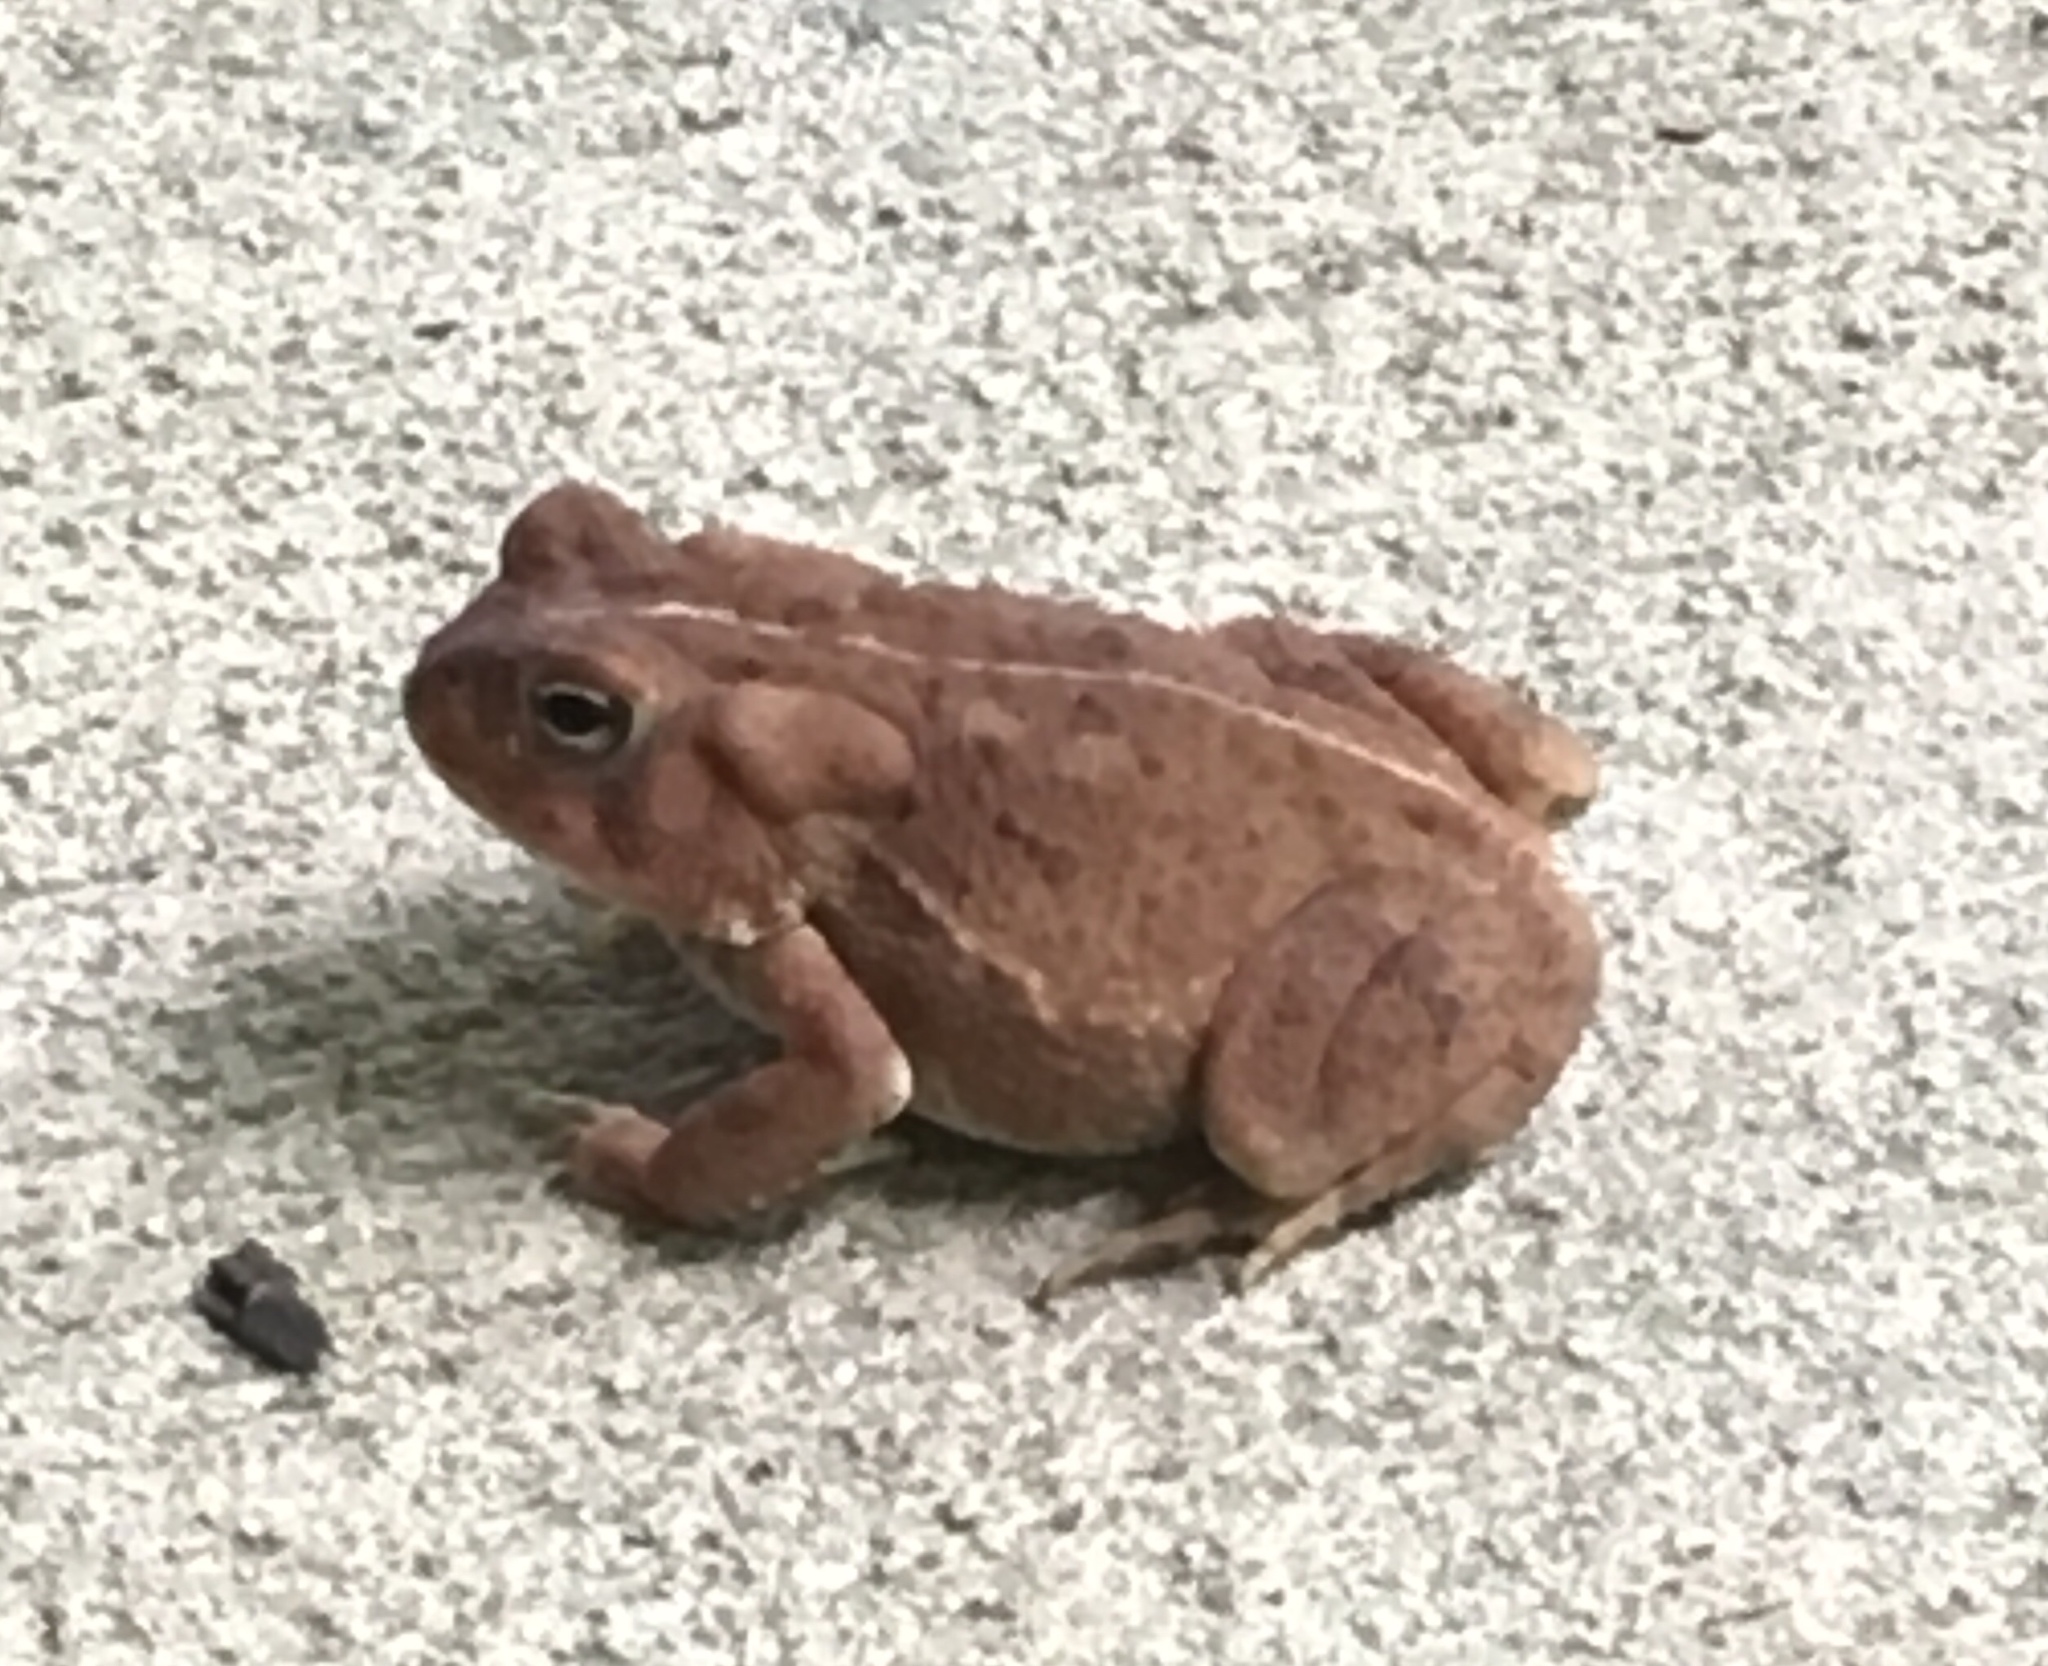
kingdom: Animalia
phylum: Chordata
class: Amphibia
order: Anura
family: Bufonidae
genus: Anaxyrus
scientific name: Anaxyrus americanus
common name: American toad
